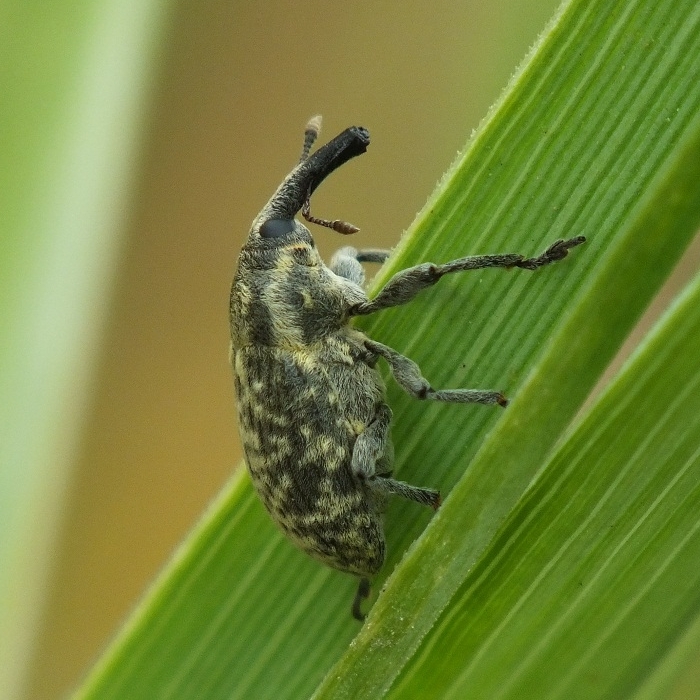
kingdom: Animalia
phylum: Arthropoda
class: Insecta
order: Coleoptera
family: Curculionidae
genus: Larinus
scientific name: Larinus iaceae
